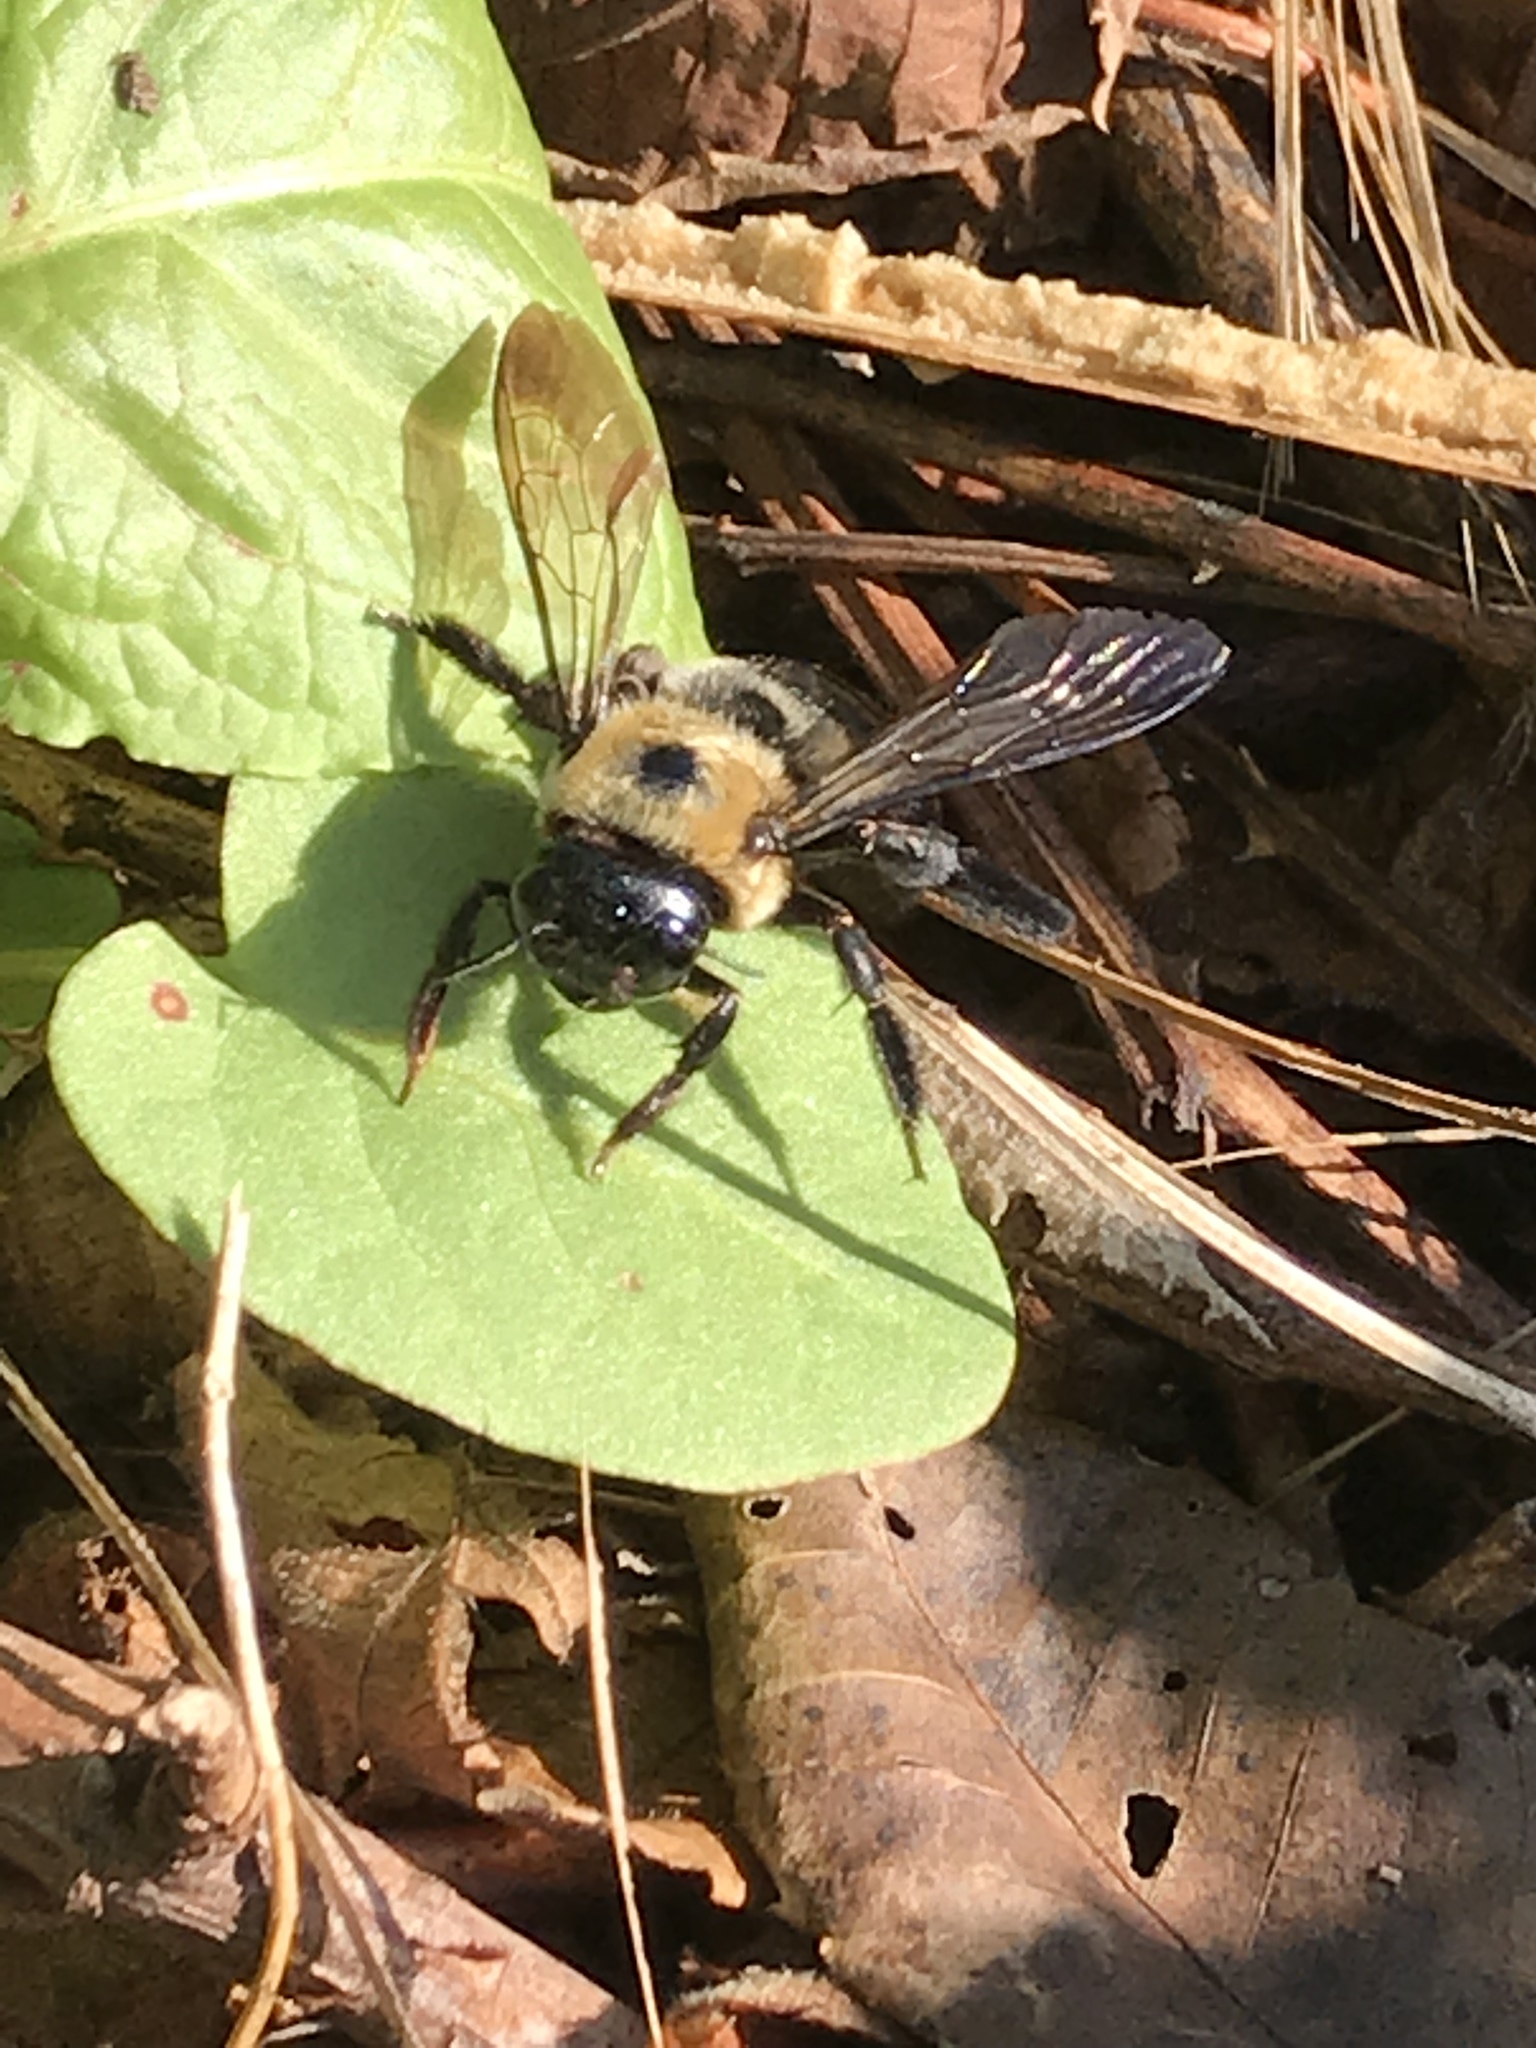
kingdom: Animalia
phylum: Arthropoda
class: Insecta
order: Hymenoptera
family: Apidae
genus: Xylocopa
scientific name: Xylocopa virginica
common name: Carpenter bee
